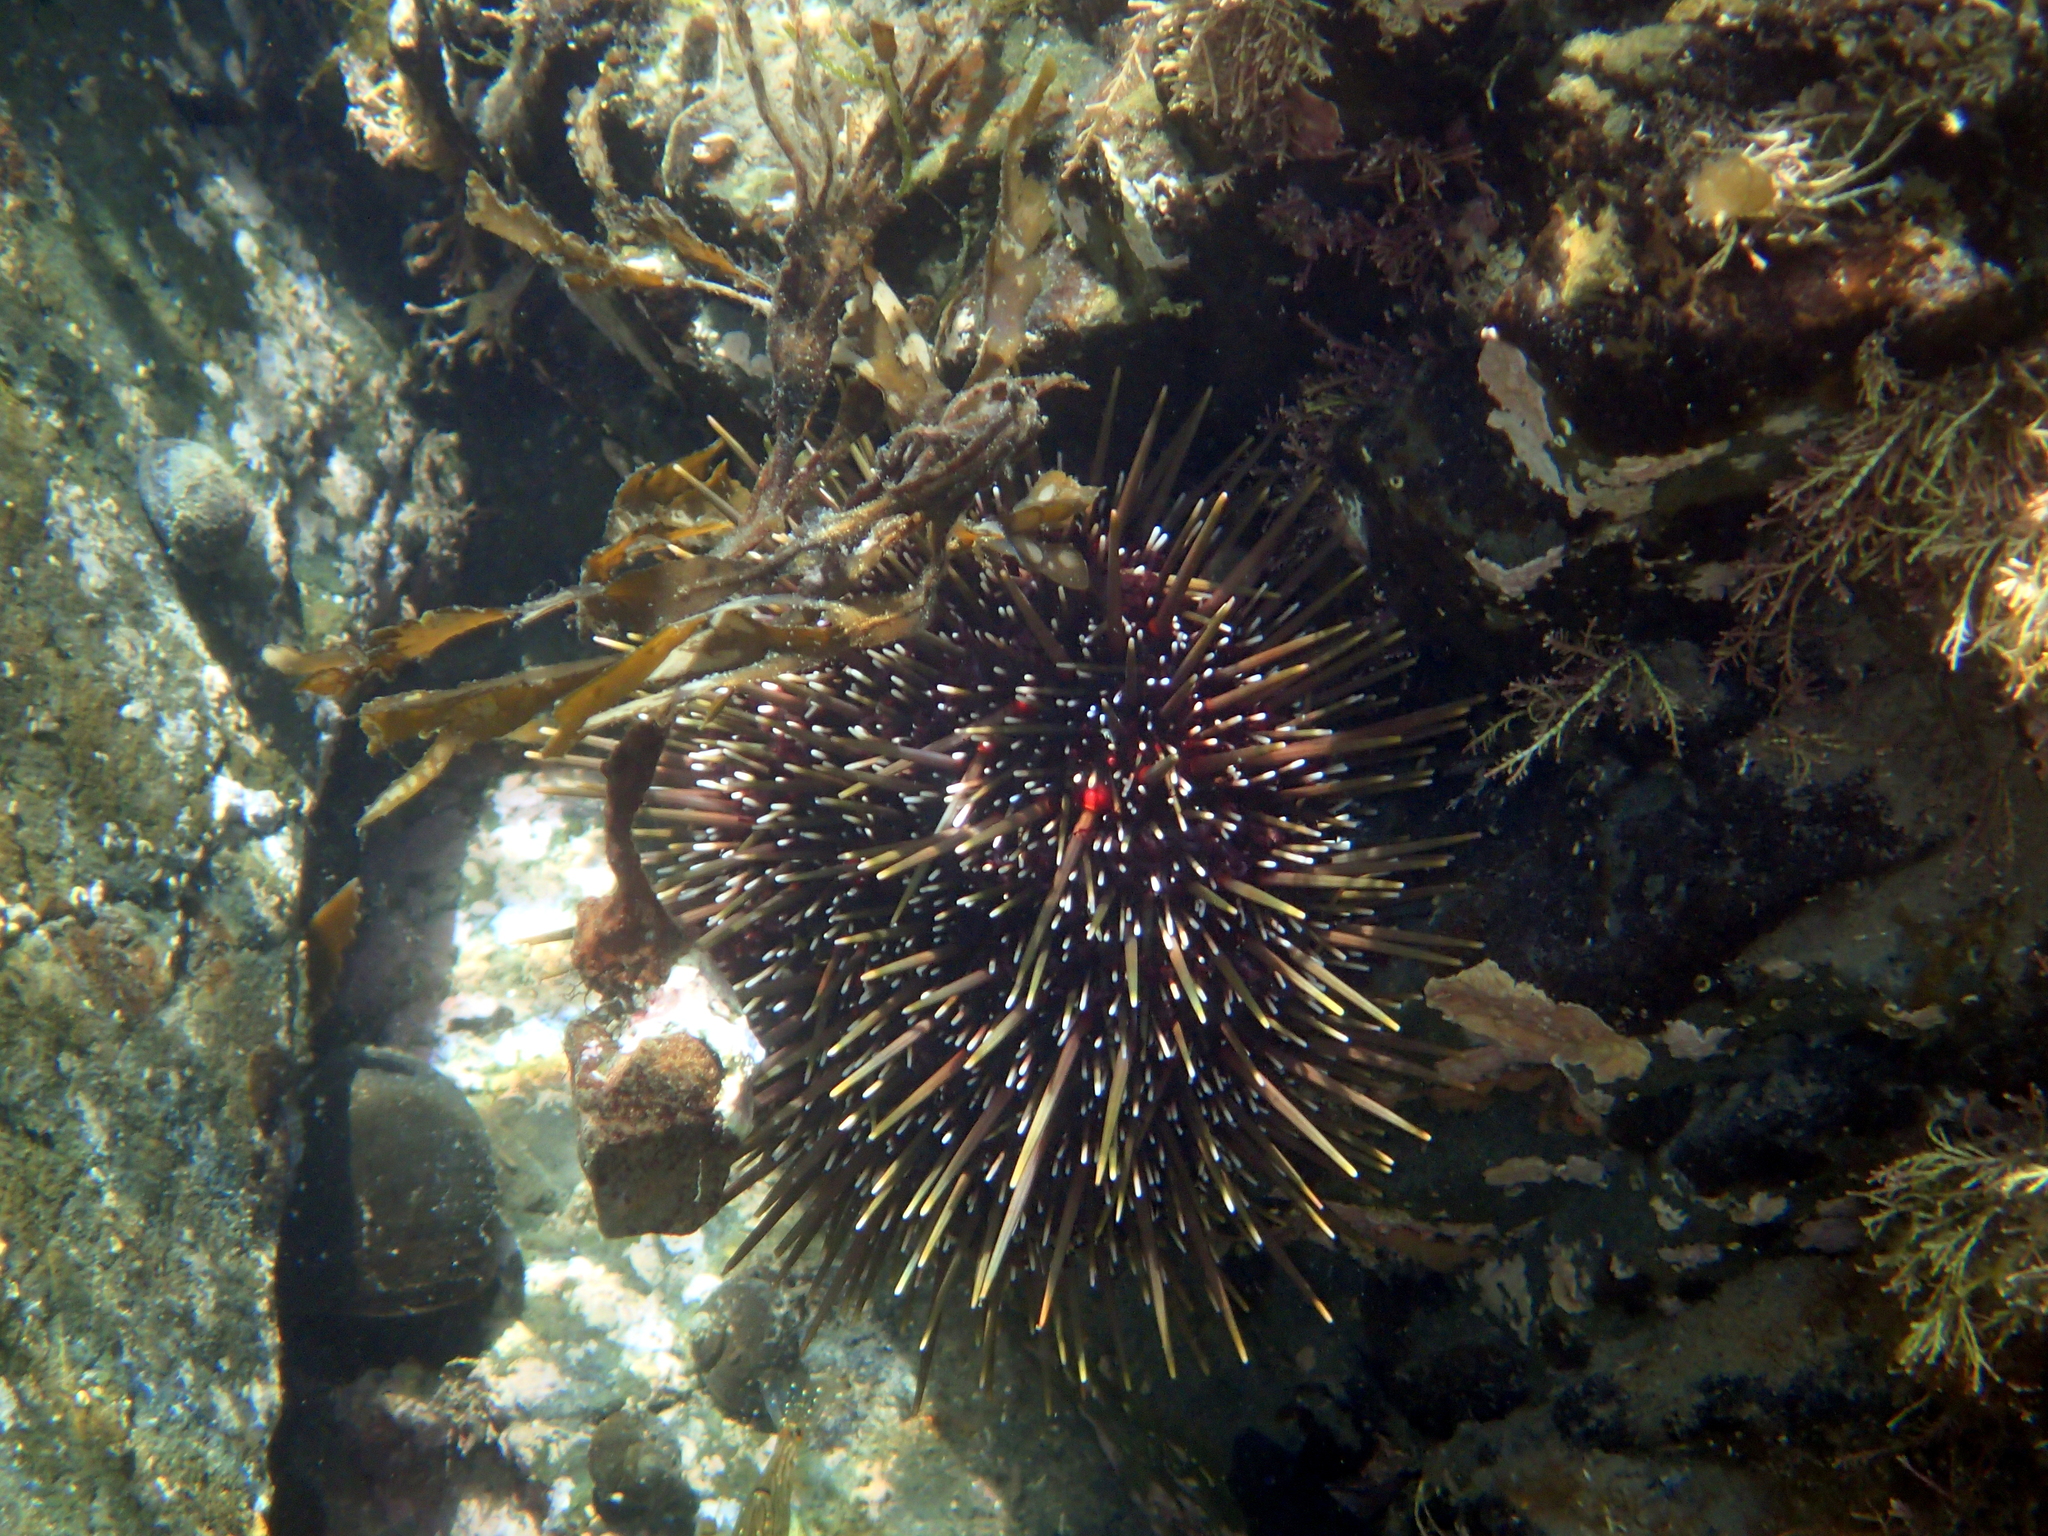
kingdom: Animalia
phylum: Echinodermata
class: Echinoidea
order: Camarodonta
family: Echinometridae
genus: Evechinus
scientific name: Evechinus chloroticus
